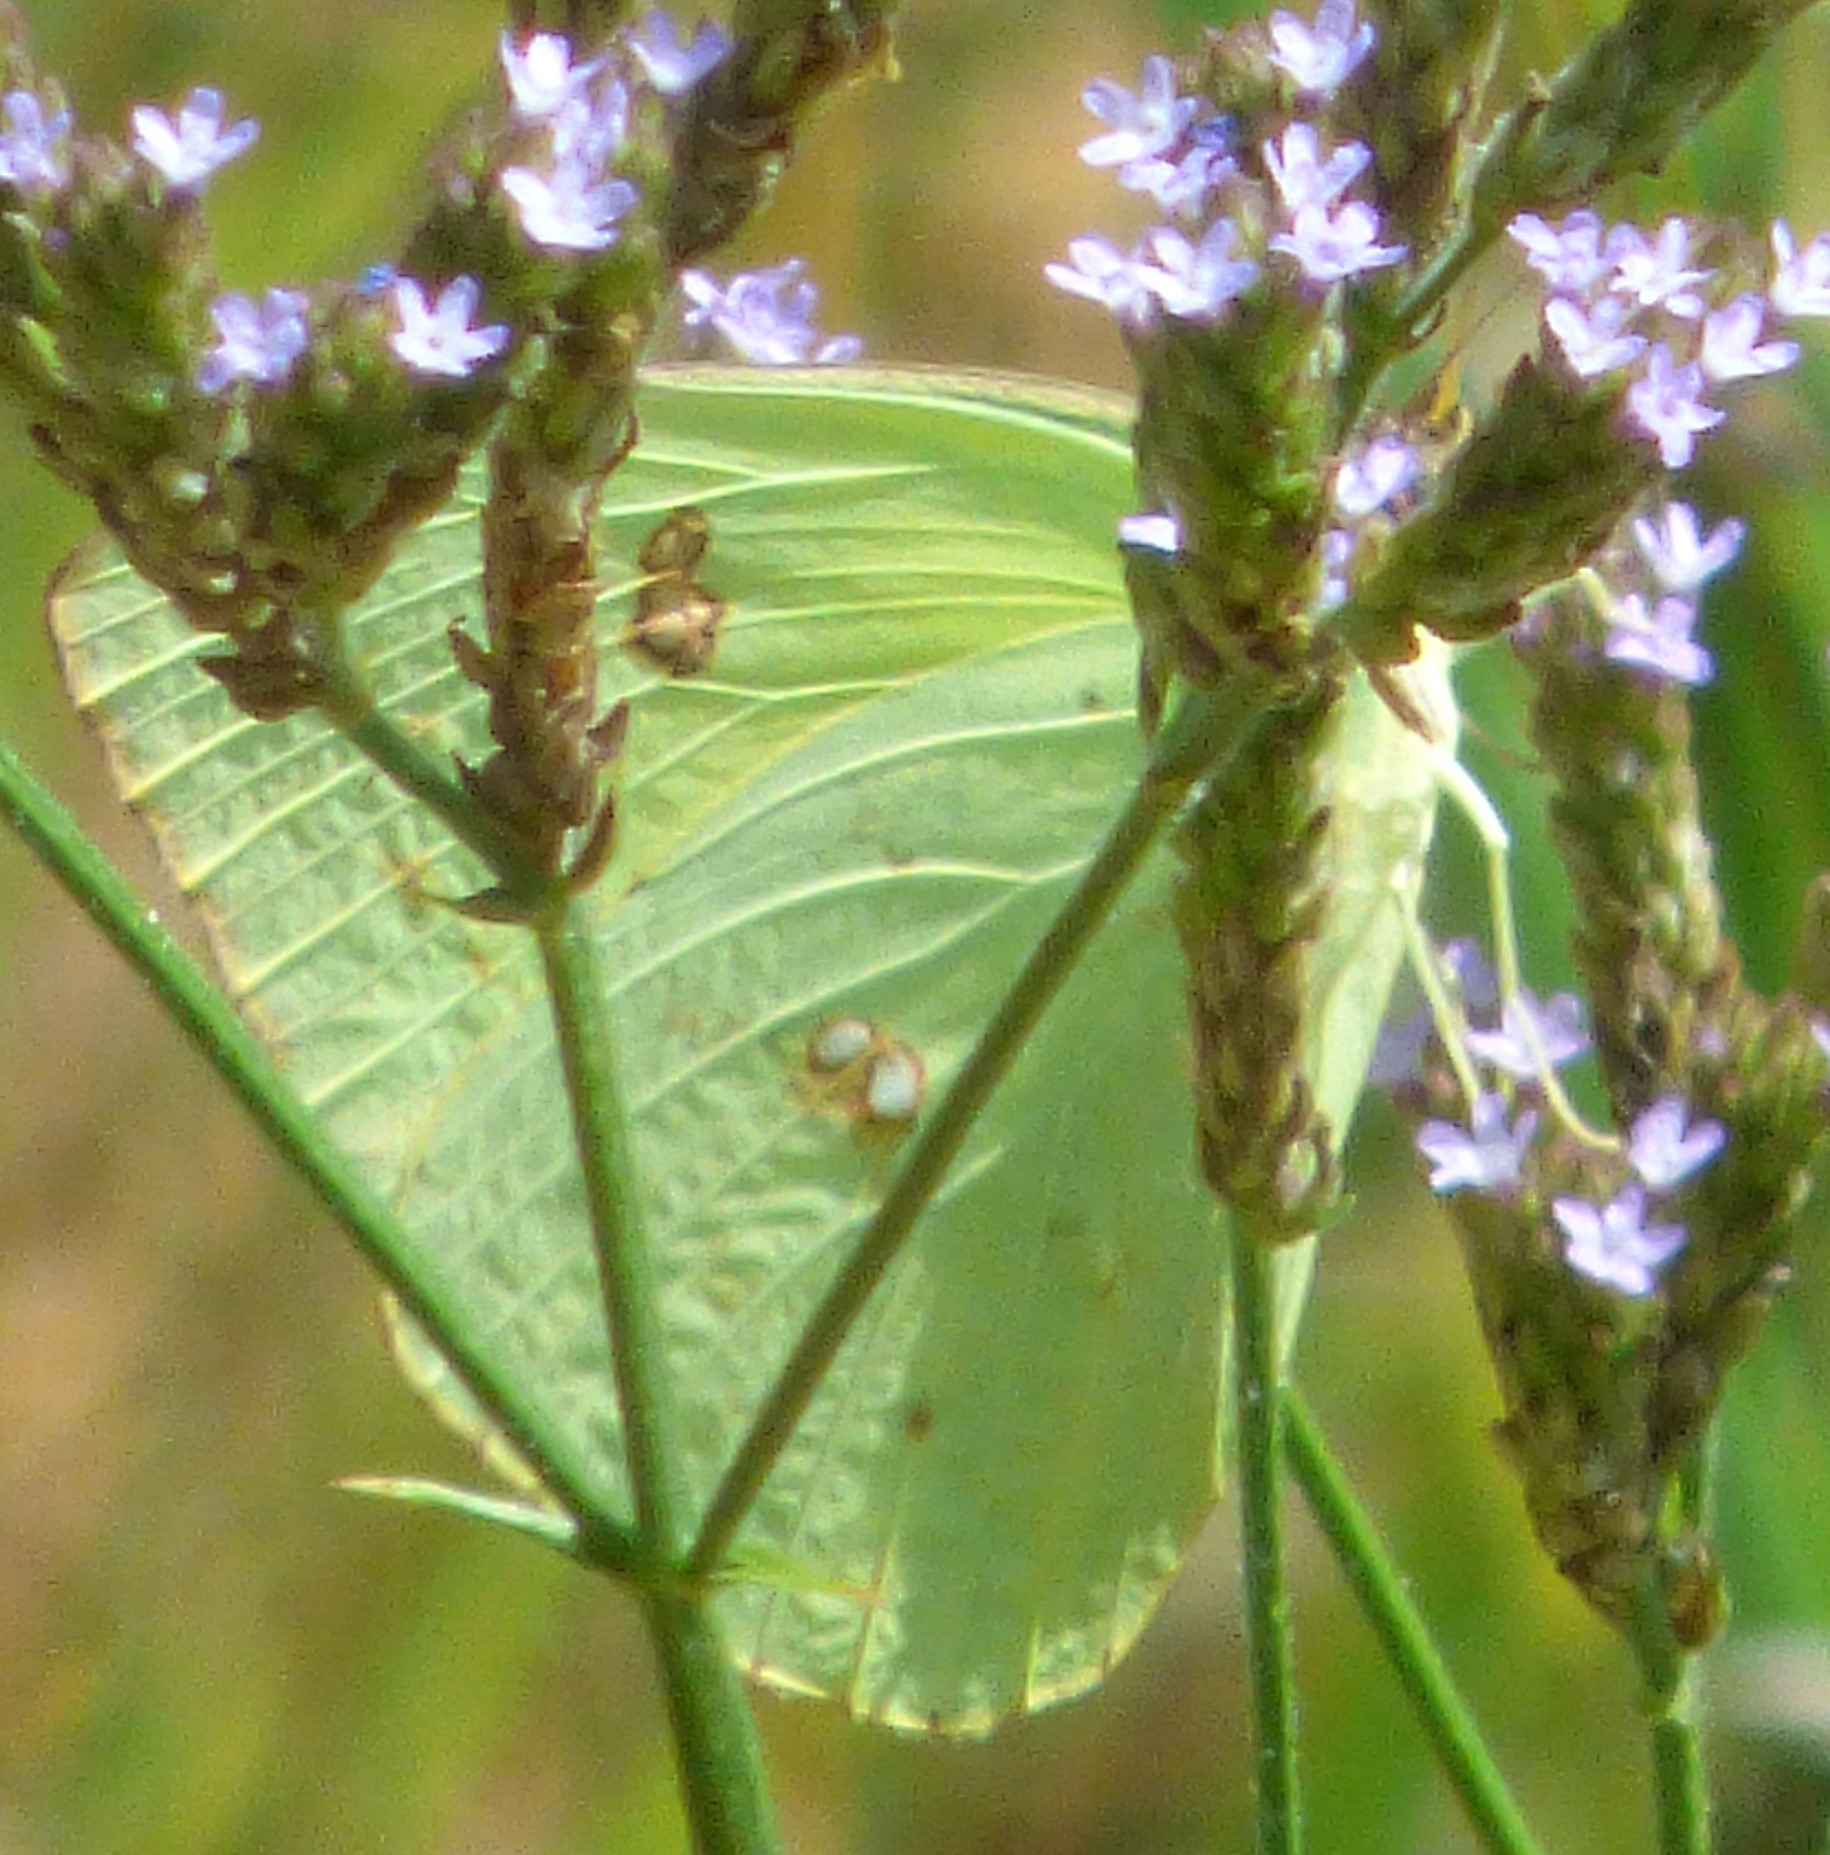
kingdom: Animalia
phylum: Arthropoda
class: Insecta
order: Lepidoptera
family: Pieridae
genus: Phoebis
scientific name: Phoebis sennae
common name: Cloudless sulphur
